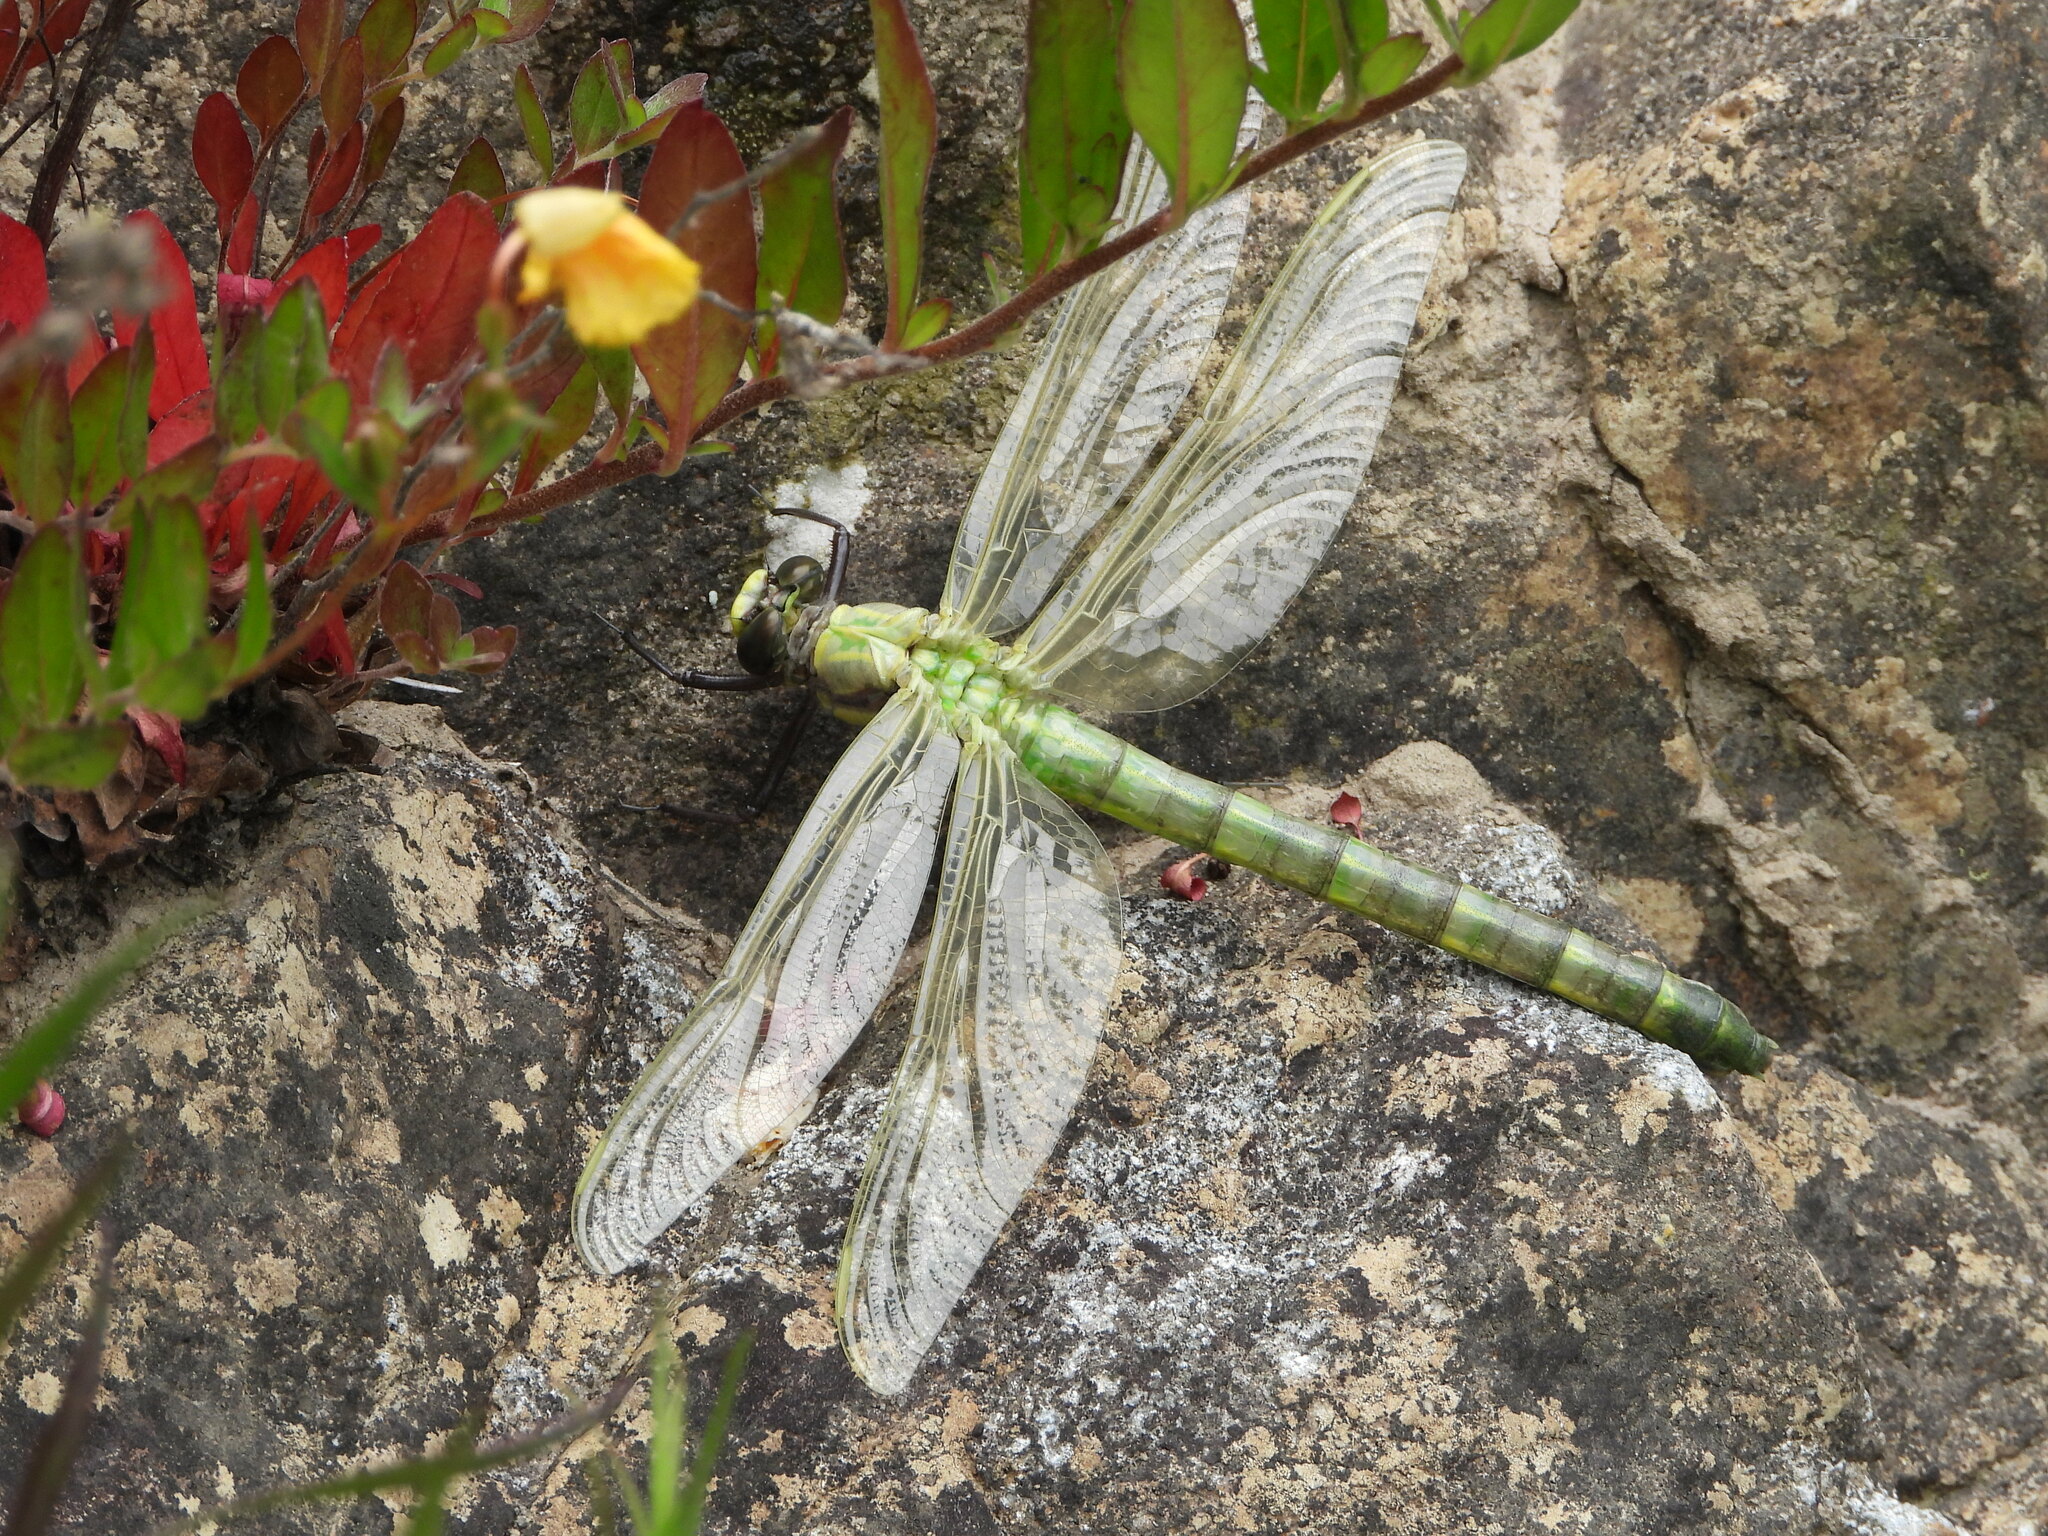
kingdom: Animalia
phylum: Arthropoda
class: Insecta
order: Odonata
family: Gomphidae
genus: Hagenius
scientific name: Hagenius brevistylus
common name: Dragonhunter
